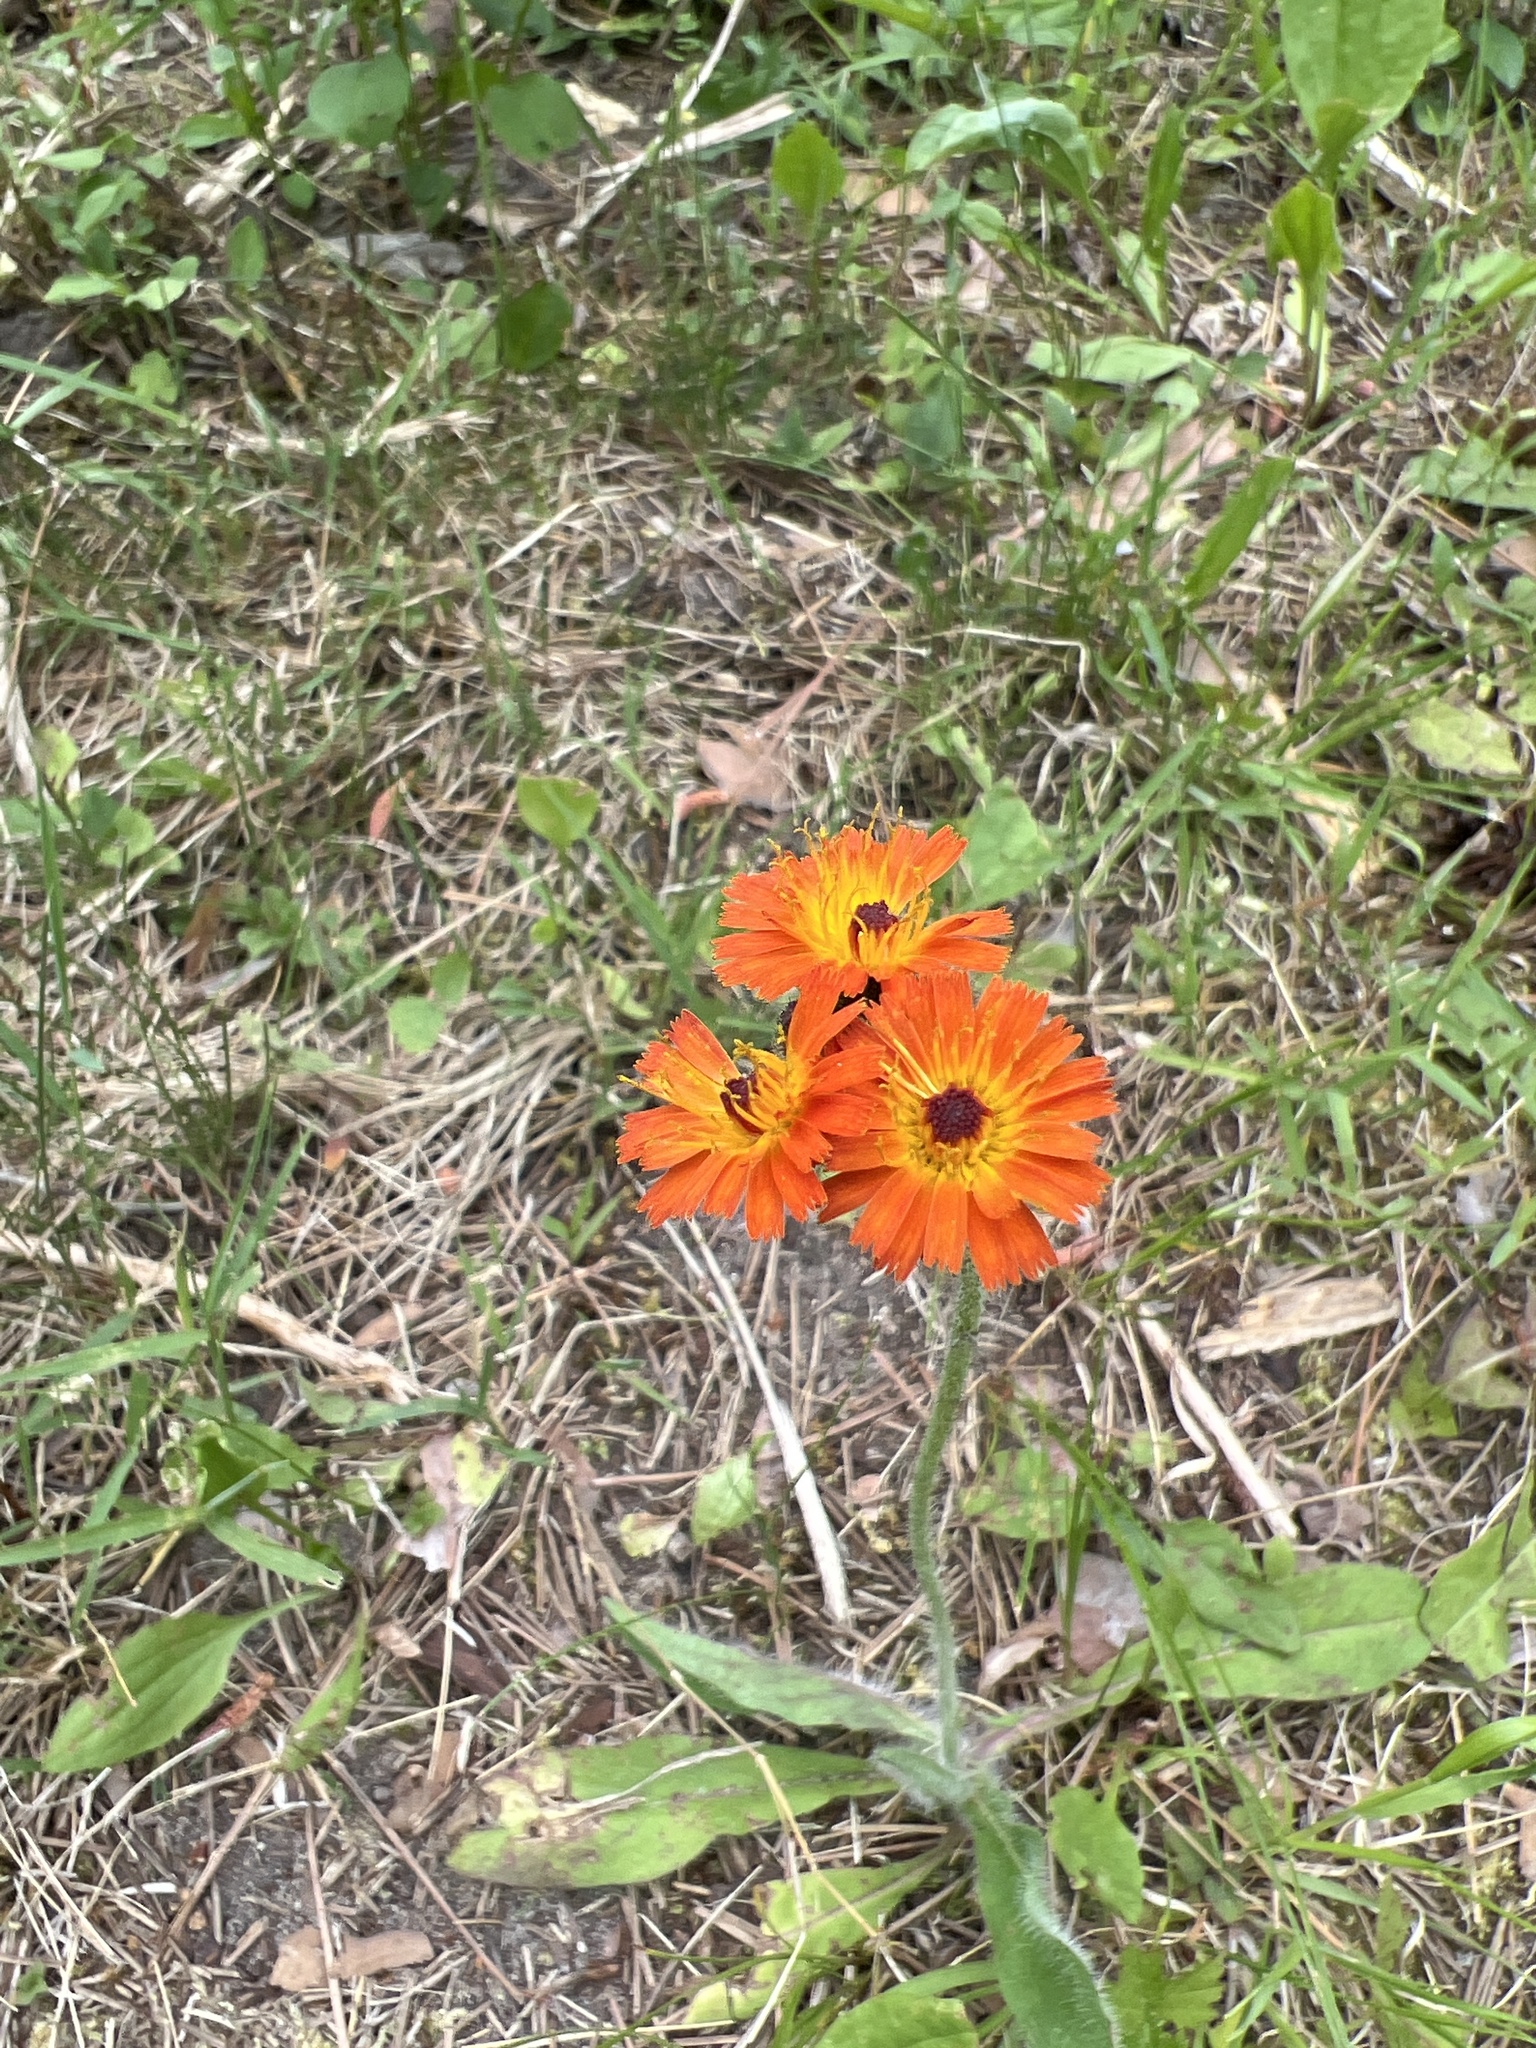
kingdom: Plantae
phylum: Tracheophyta
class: Magnoliopsida
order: Asterales
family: Asteraceae
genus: Pilosella
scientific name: Pilosella aurantiaca
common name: Fox-and-cubs
